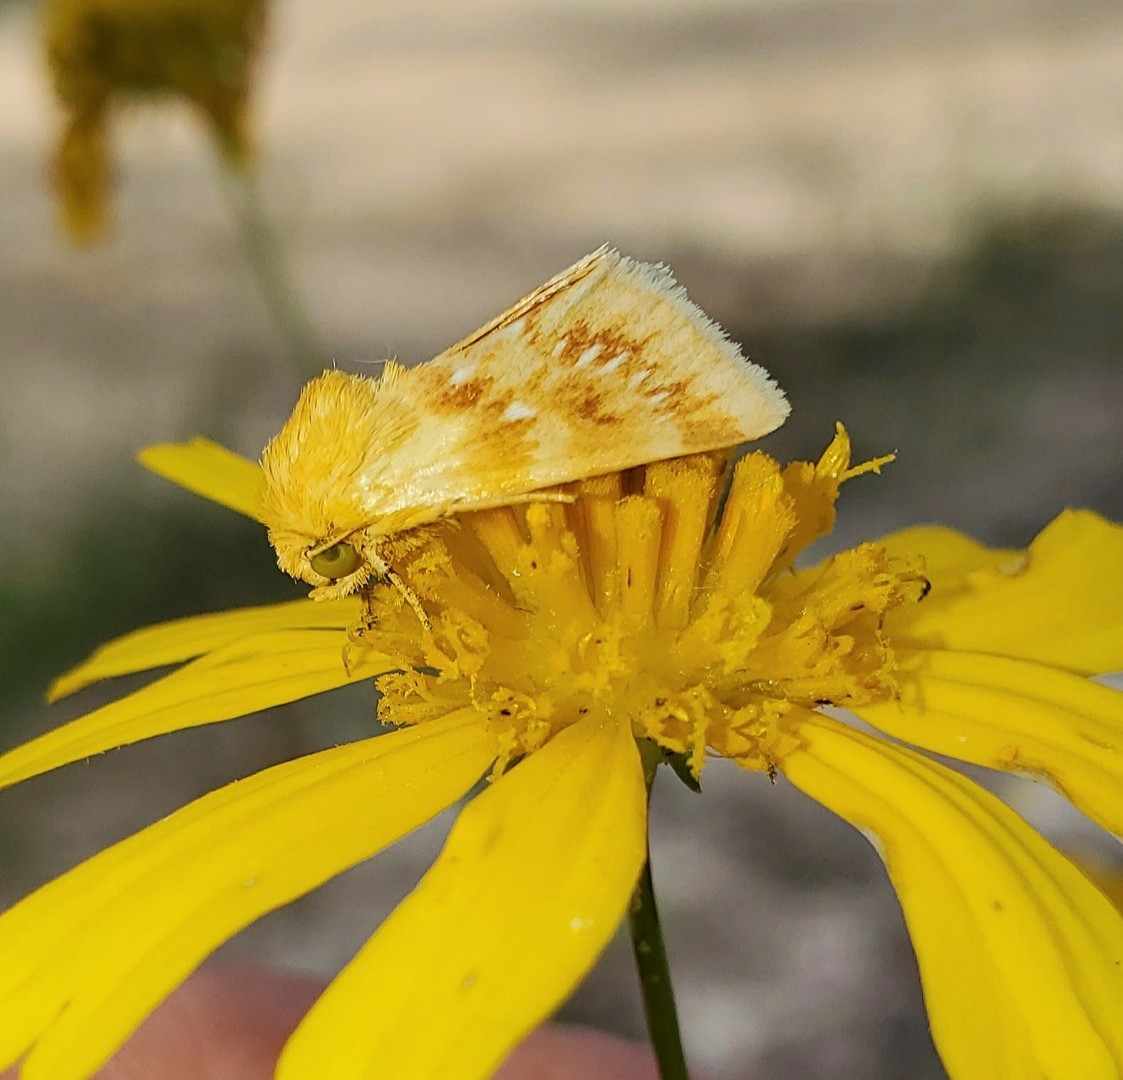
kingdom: Animalia
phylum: Arthropoda
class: Insecta
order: Lepidoptera
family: Noctuidae
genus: Schinia
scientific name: Schinia fulleri
